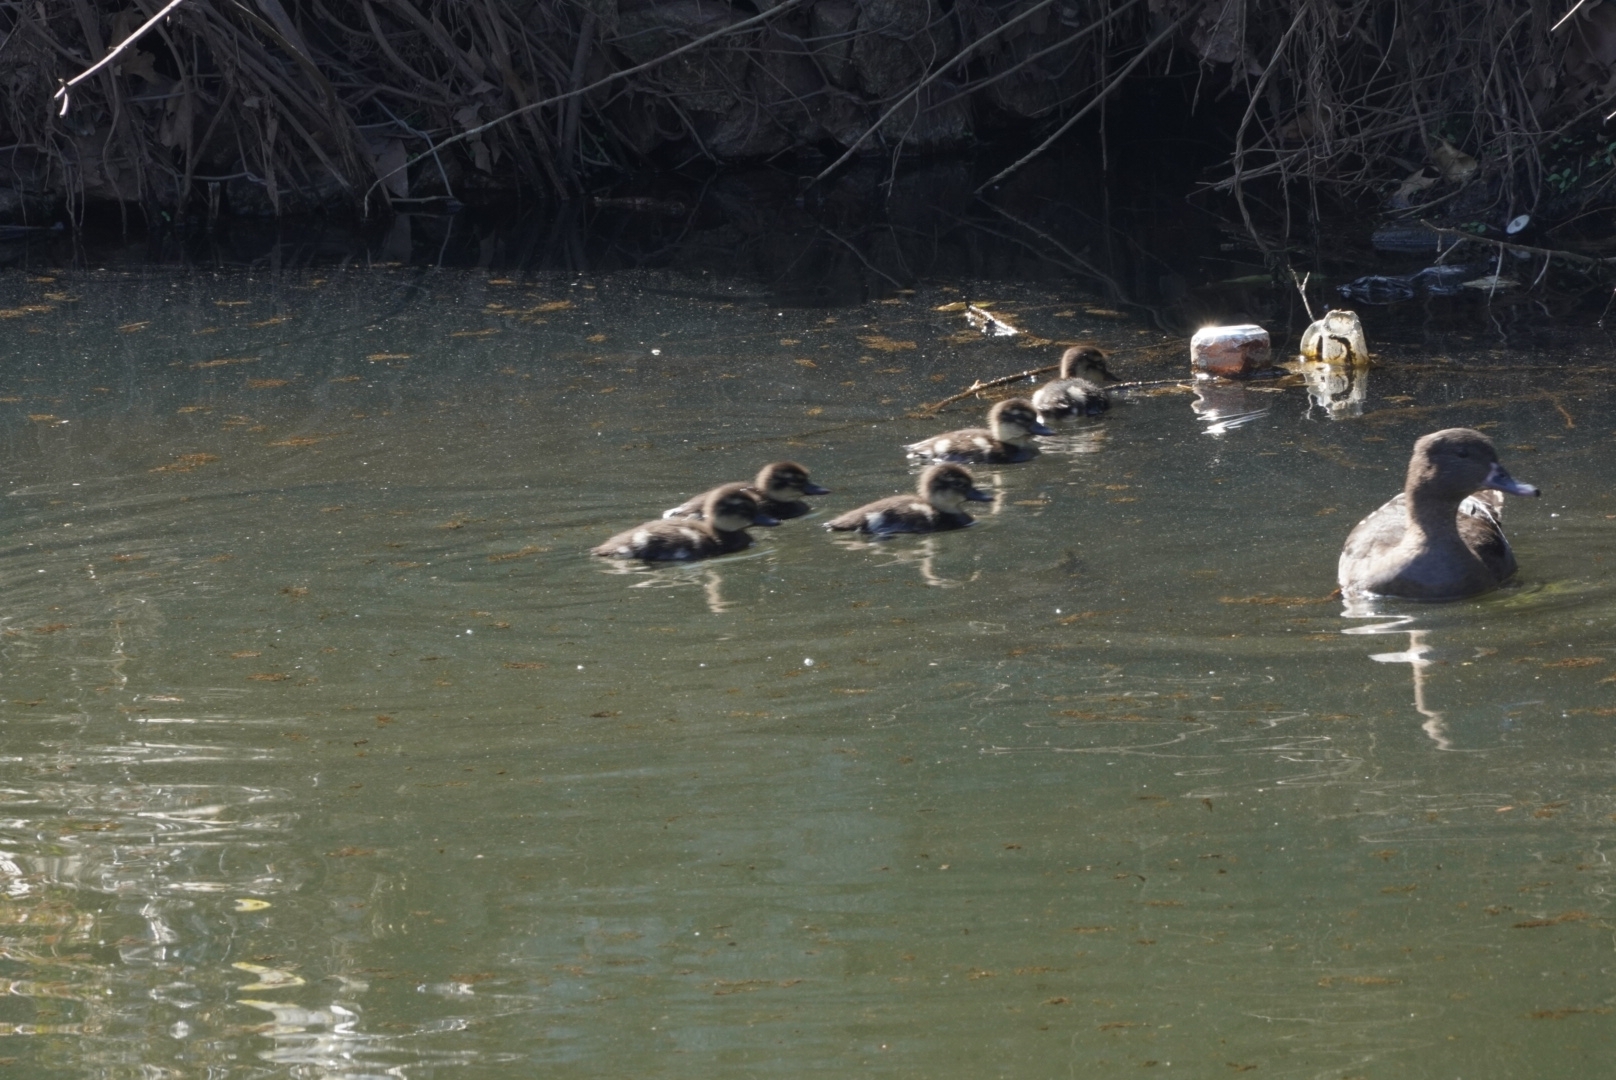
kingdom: Animalia
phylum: Chordata
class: Aves
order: Anseriformes
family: Anatidae
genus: Anas
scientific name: Anas sparsa
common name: African black duck
